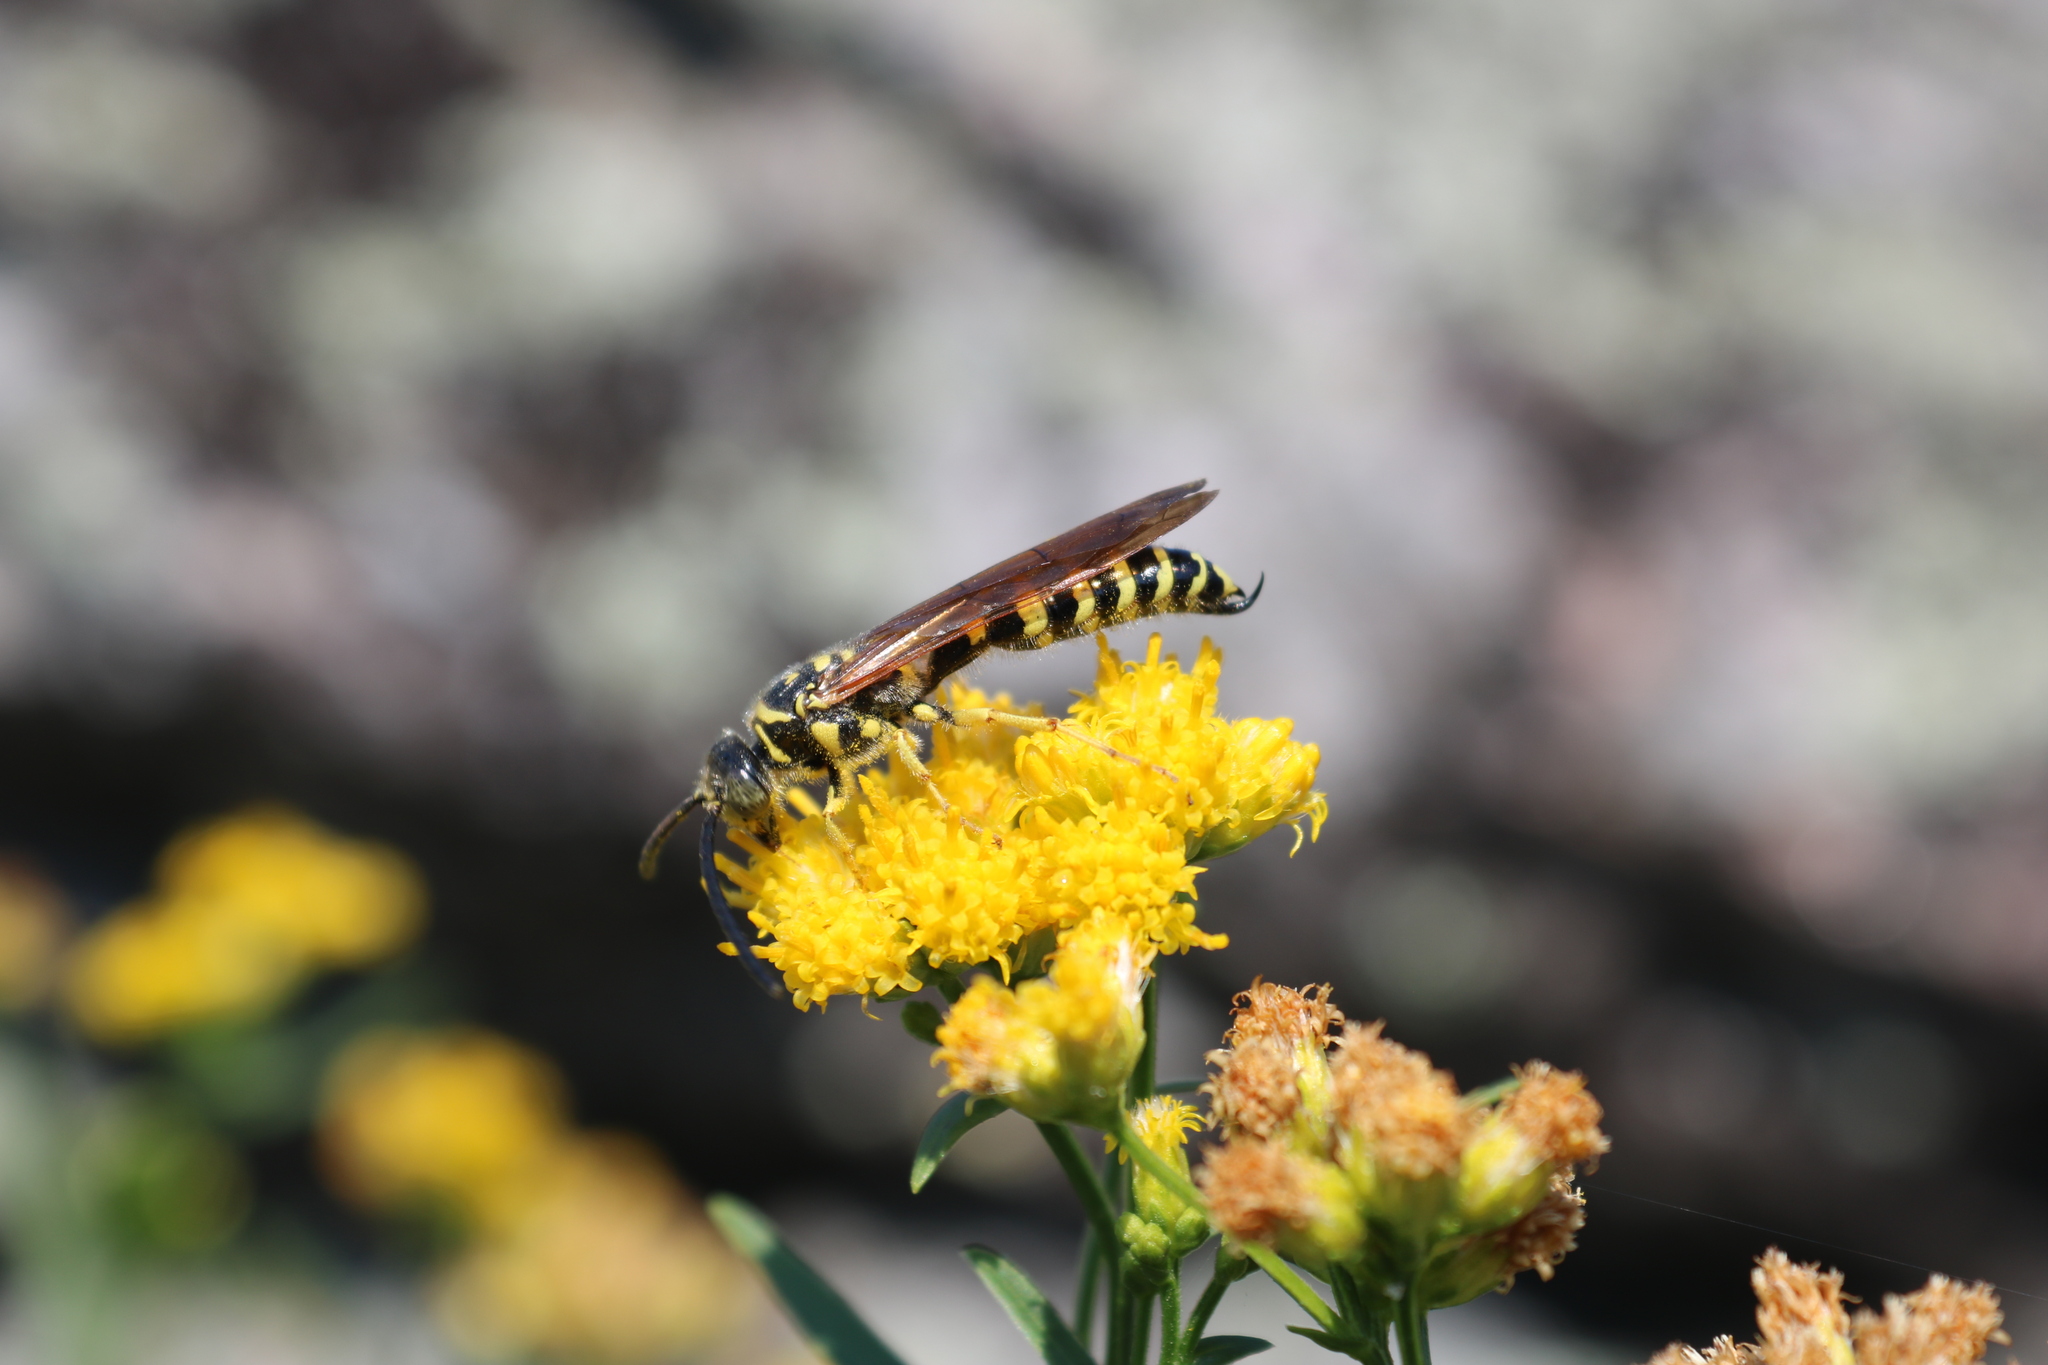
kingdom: Animalia
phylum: Arthropoda
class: Insecta
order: Hymenoptera
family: Tiphiidae
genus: Myzinum
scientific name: Myzinum quinquecinctum
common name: Five-banded thynnid wasp
